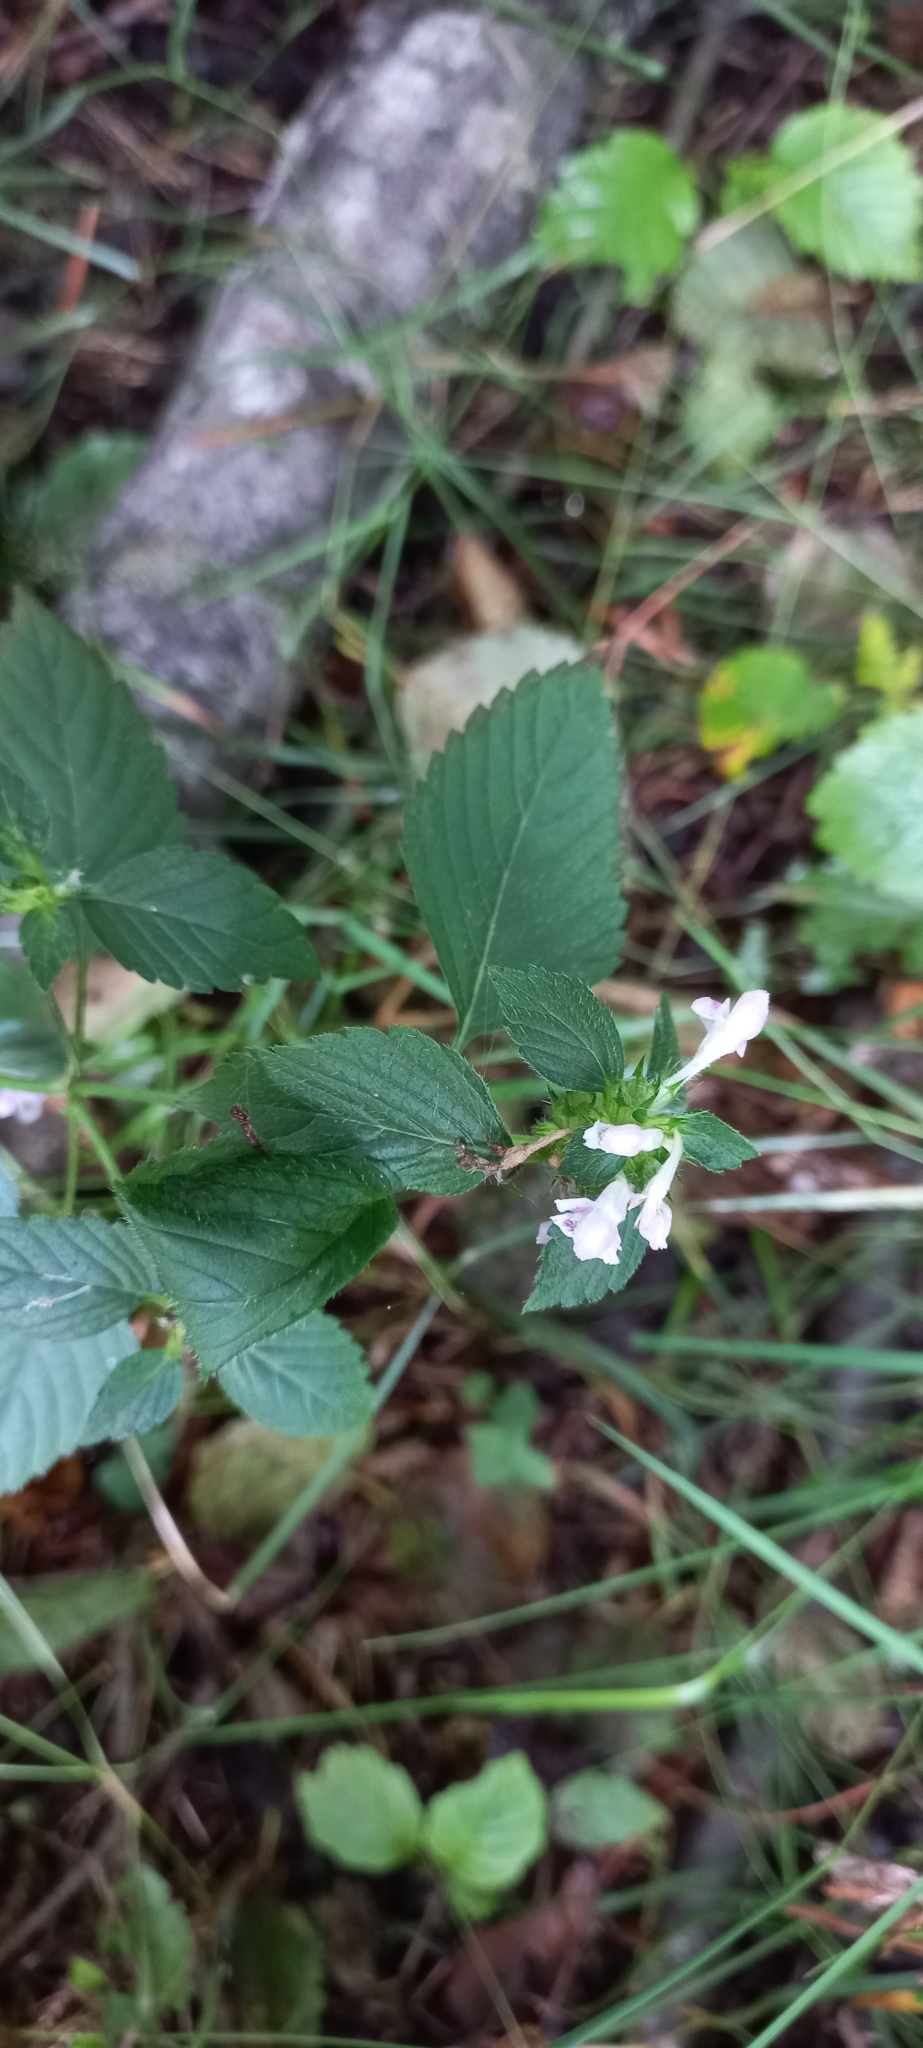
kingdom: Plantae
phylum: Tracheophyta
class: Magnoliopsida
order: Lamiales
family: Lamiaceae
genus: Galeopsis
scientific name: Galeopsis tetrahit
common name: Common hemp-nettle
